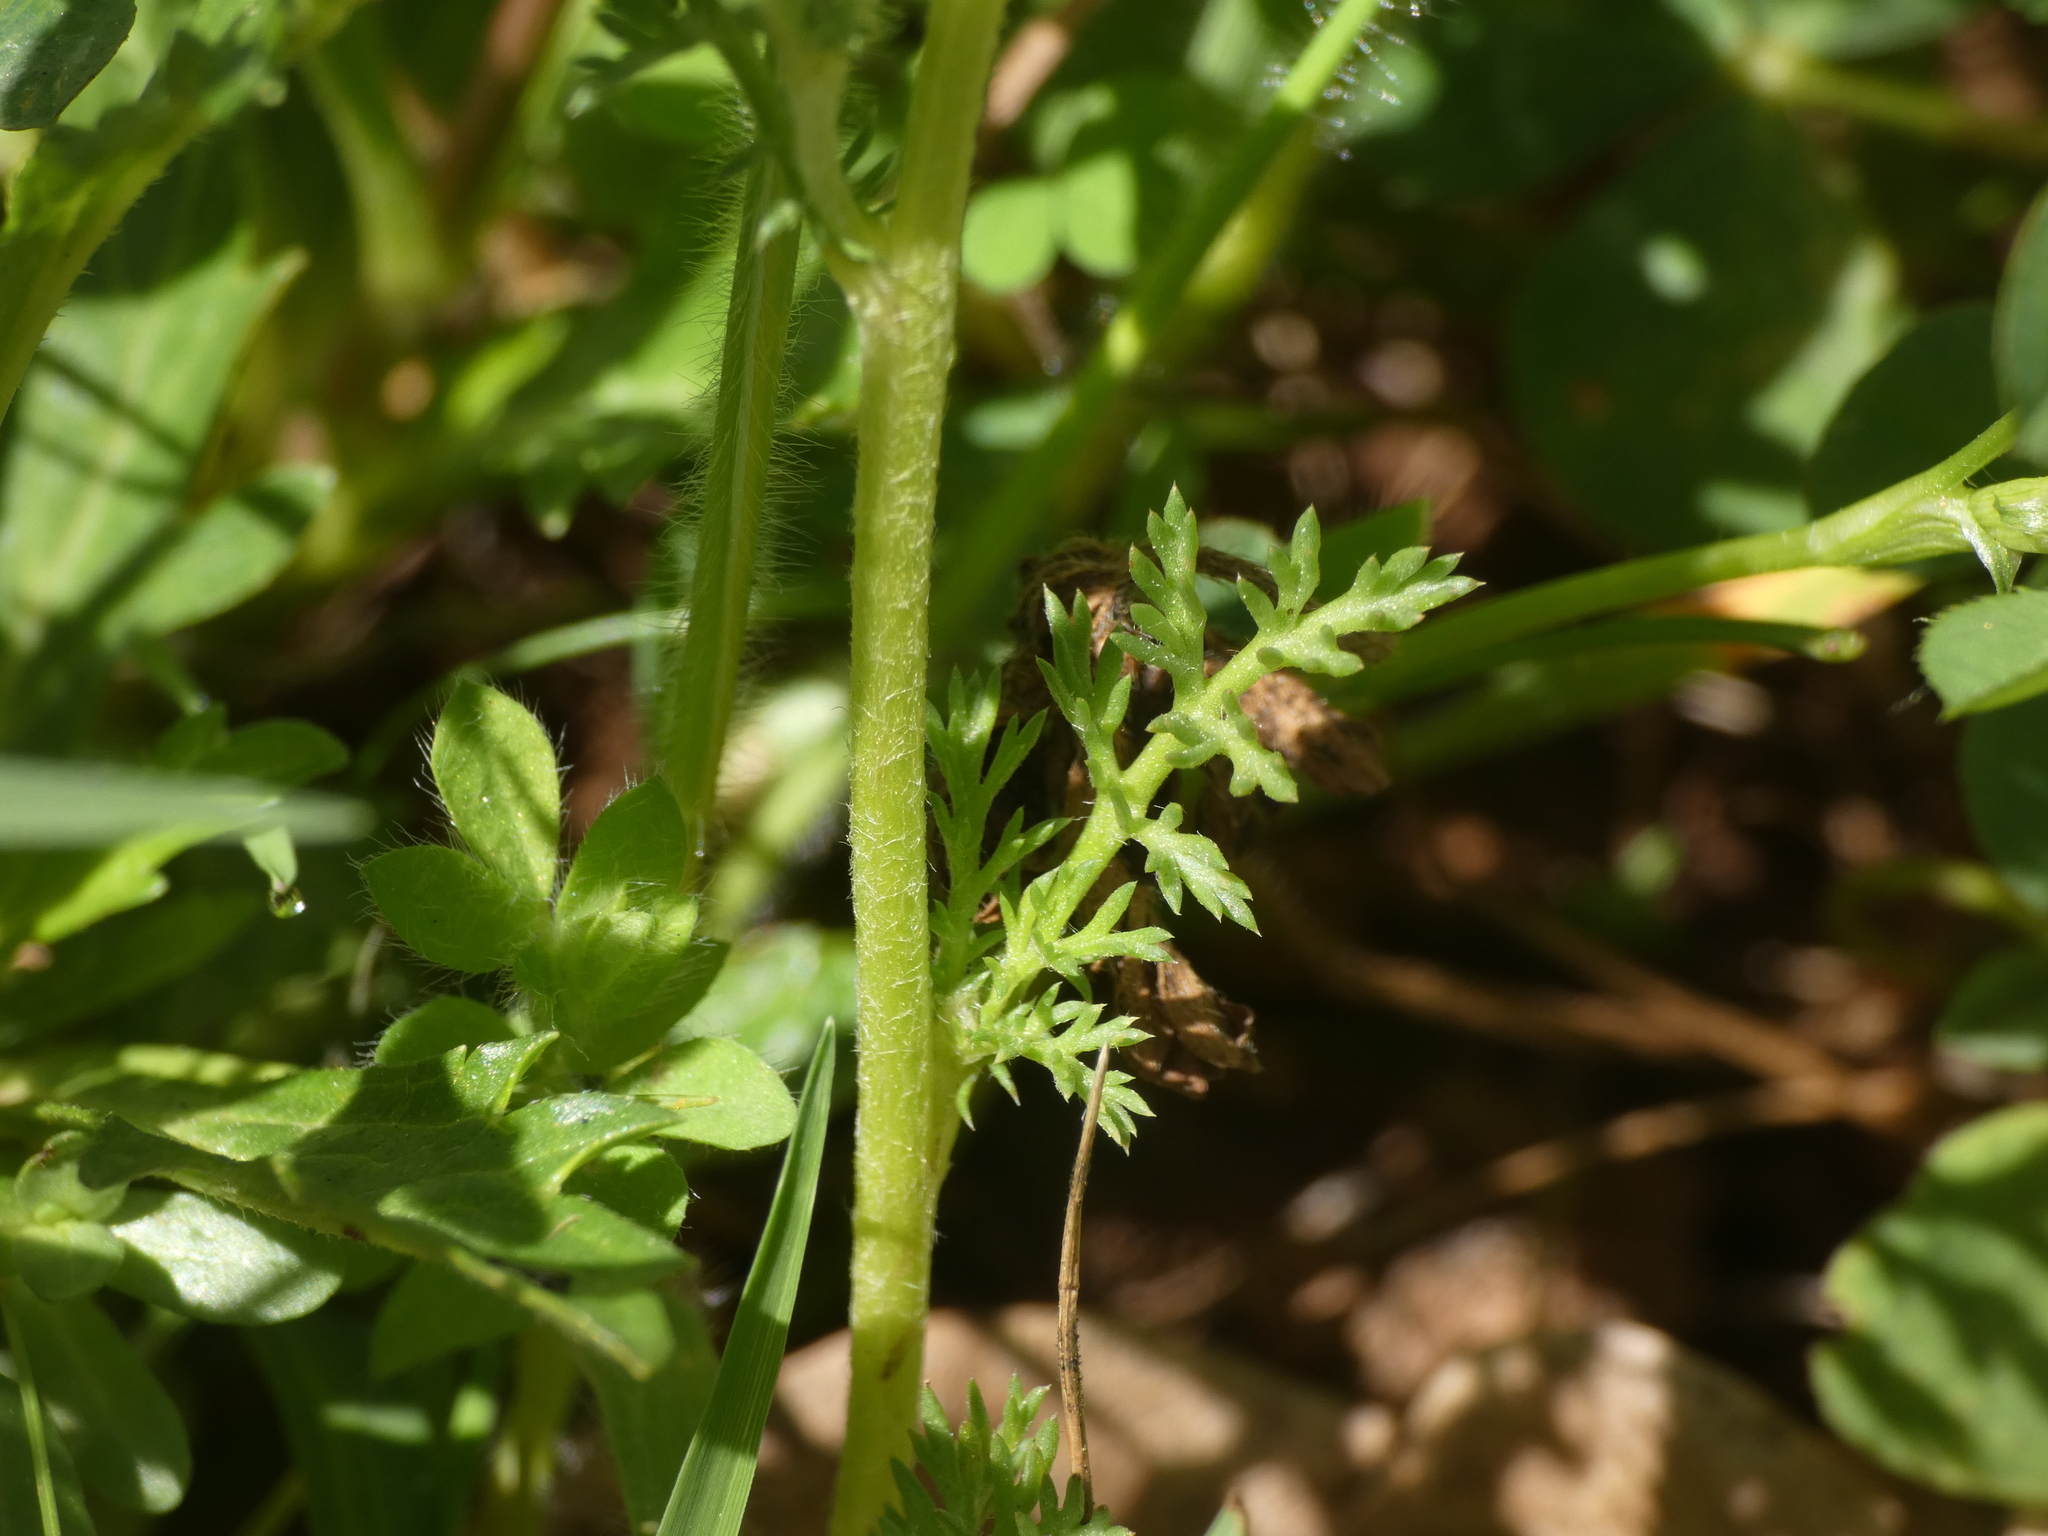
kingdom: Plantae
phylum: Tracheophyta
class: Magnoliopsida
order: Asterales
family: Asteraceae
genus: Anthemis
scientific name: Anthemis arvensis
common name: Corn chamomile
